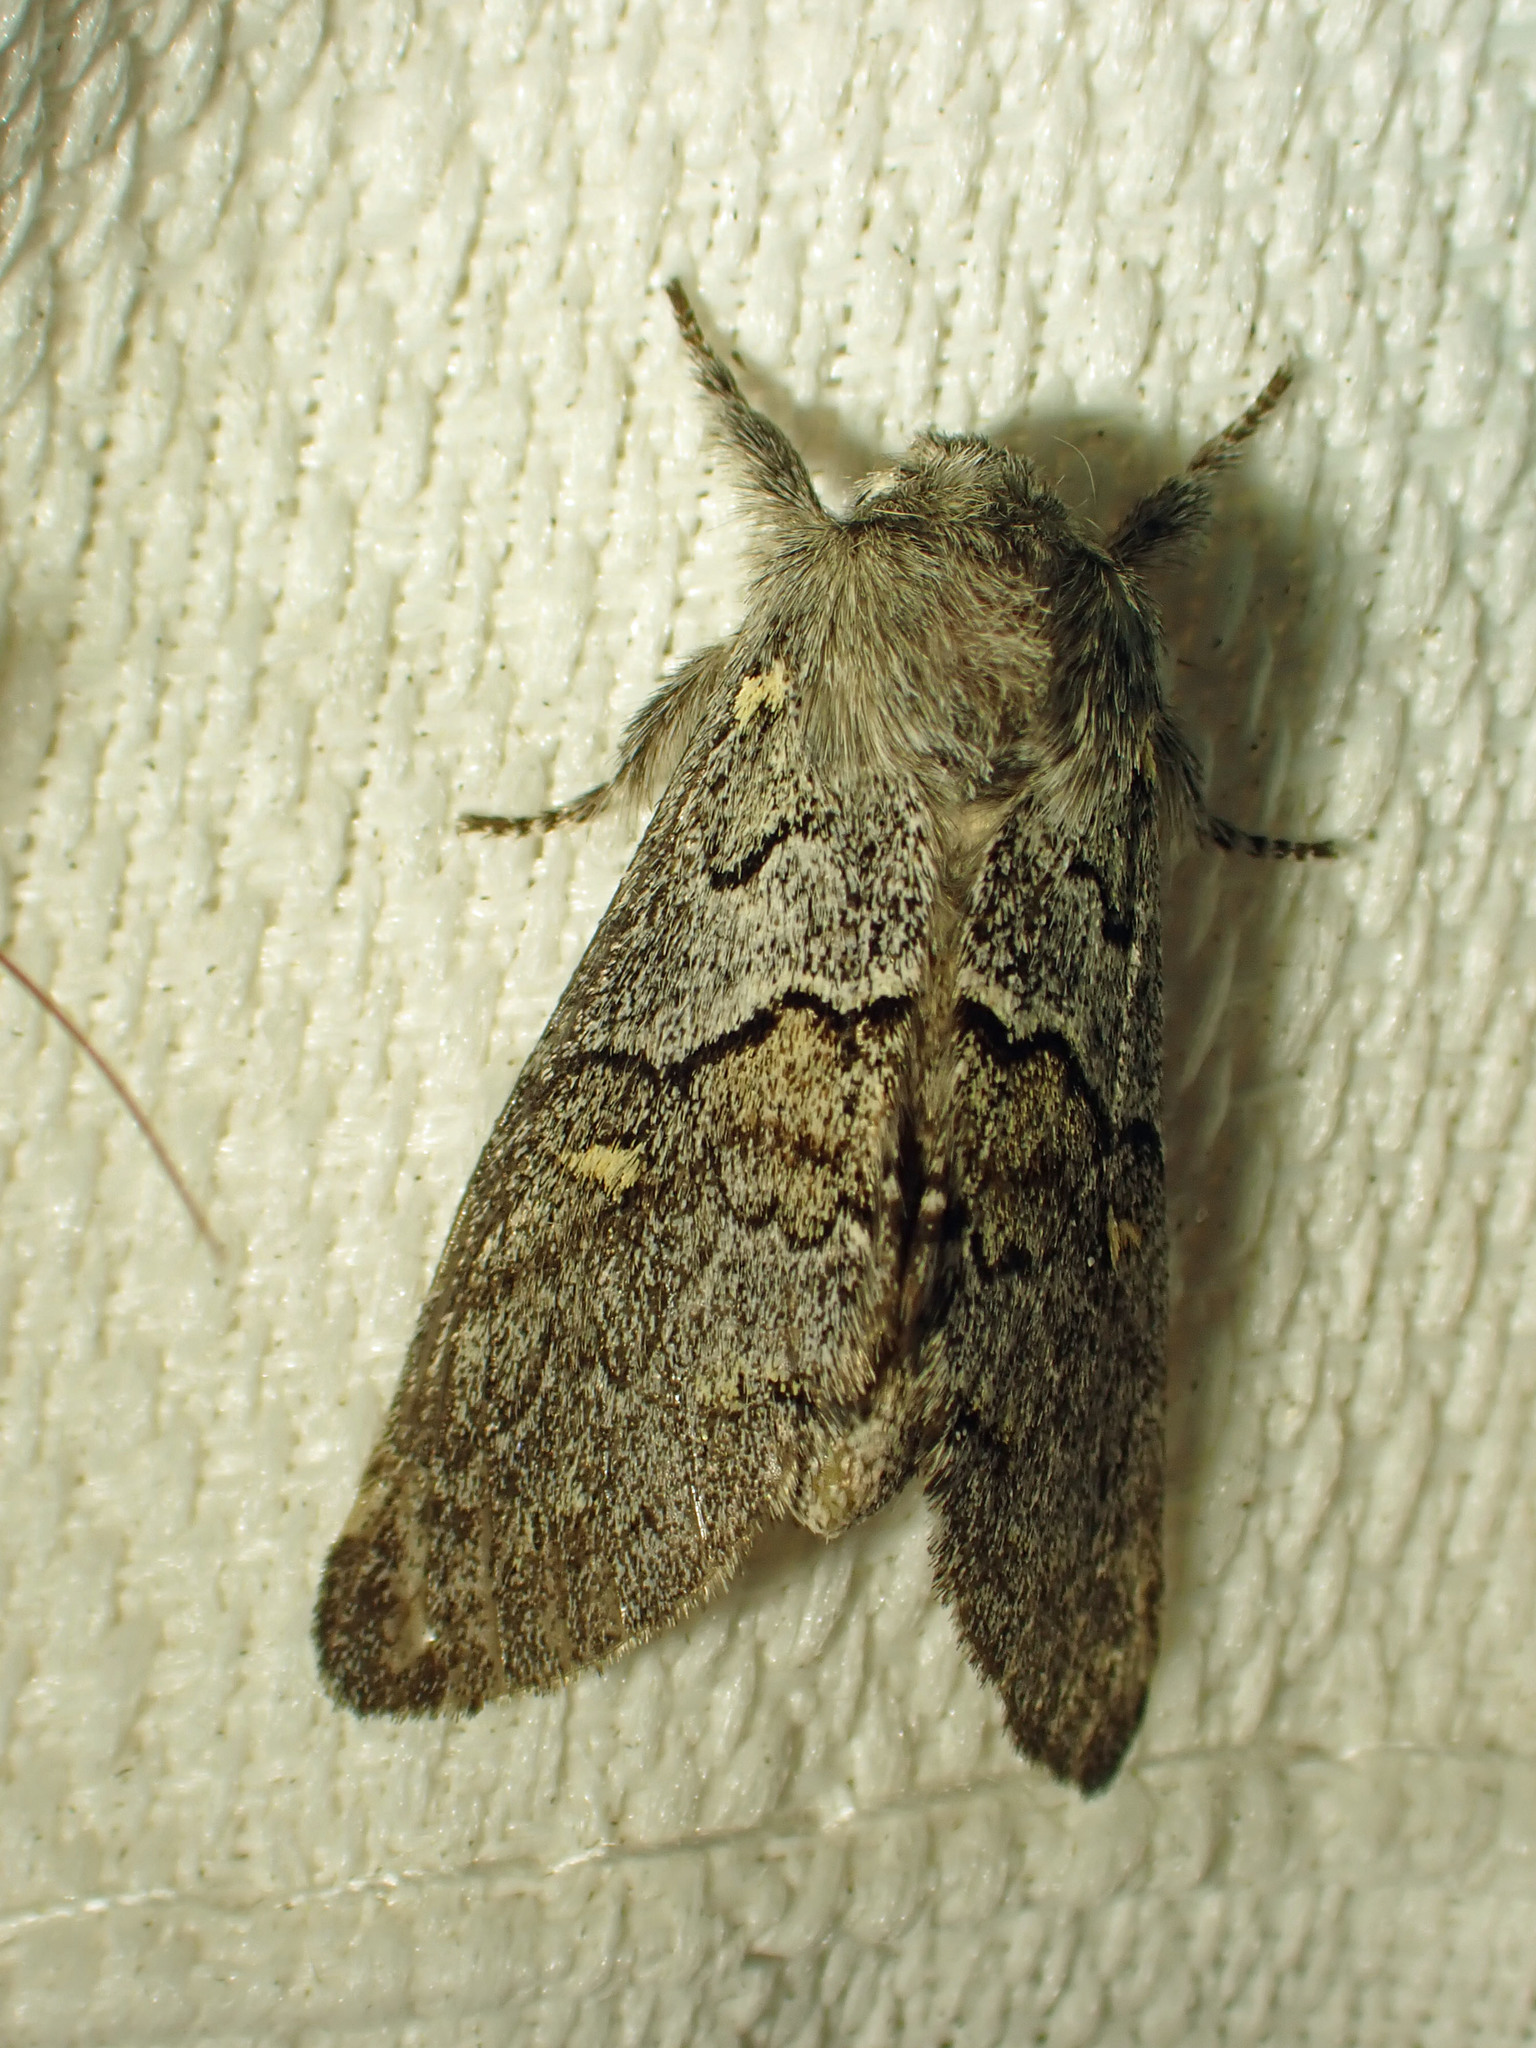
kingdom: Animalia
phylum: Arthropoda
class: Insecta
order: Lepidoptera
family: Notodontidae
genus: Gluphisia
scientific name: Gluphisia avimacula
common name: Four-spotted gluphisia moth
